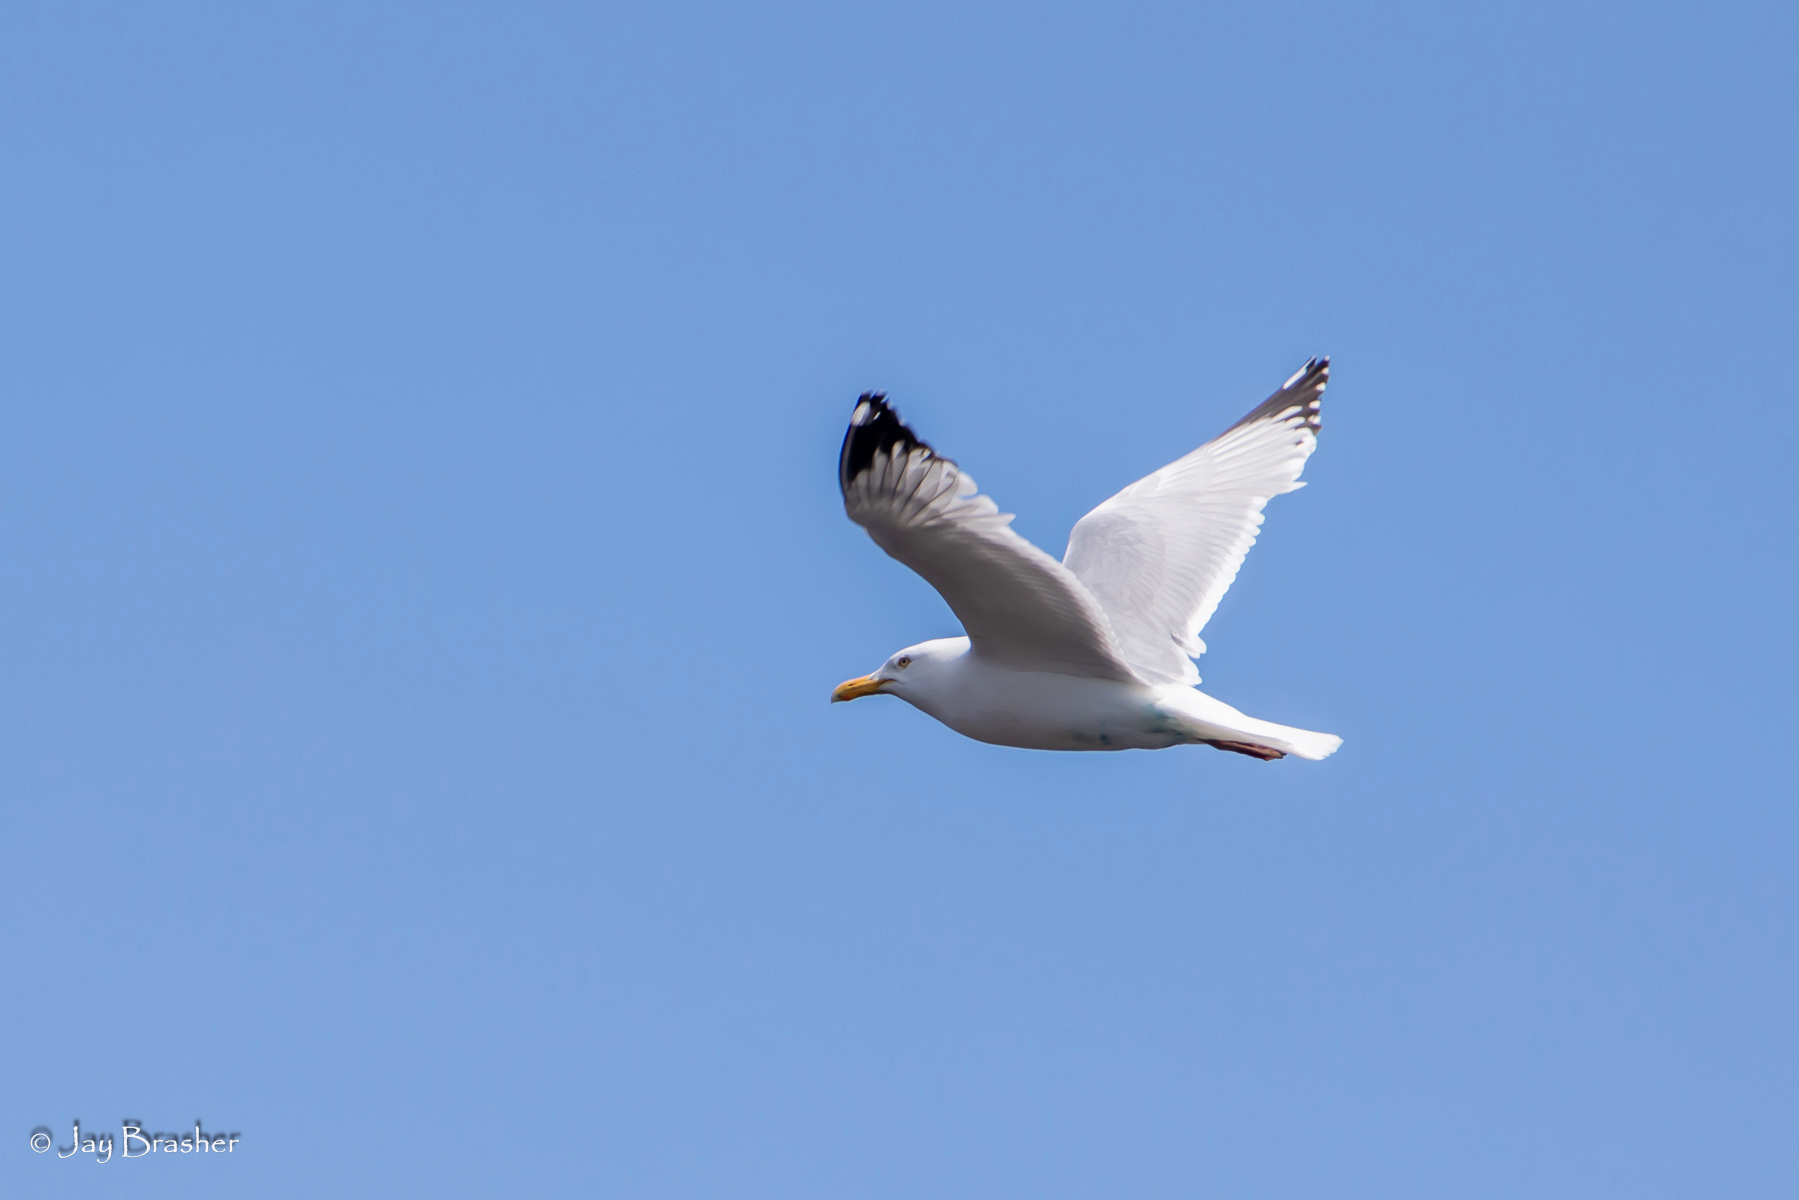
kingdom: Animalia
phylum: Chordata
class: Aves
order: Charadriiformes
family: Laridae
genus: Larus
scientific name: Larus argentatus
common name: Herring gull
